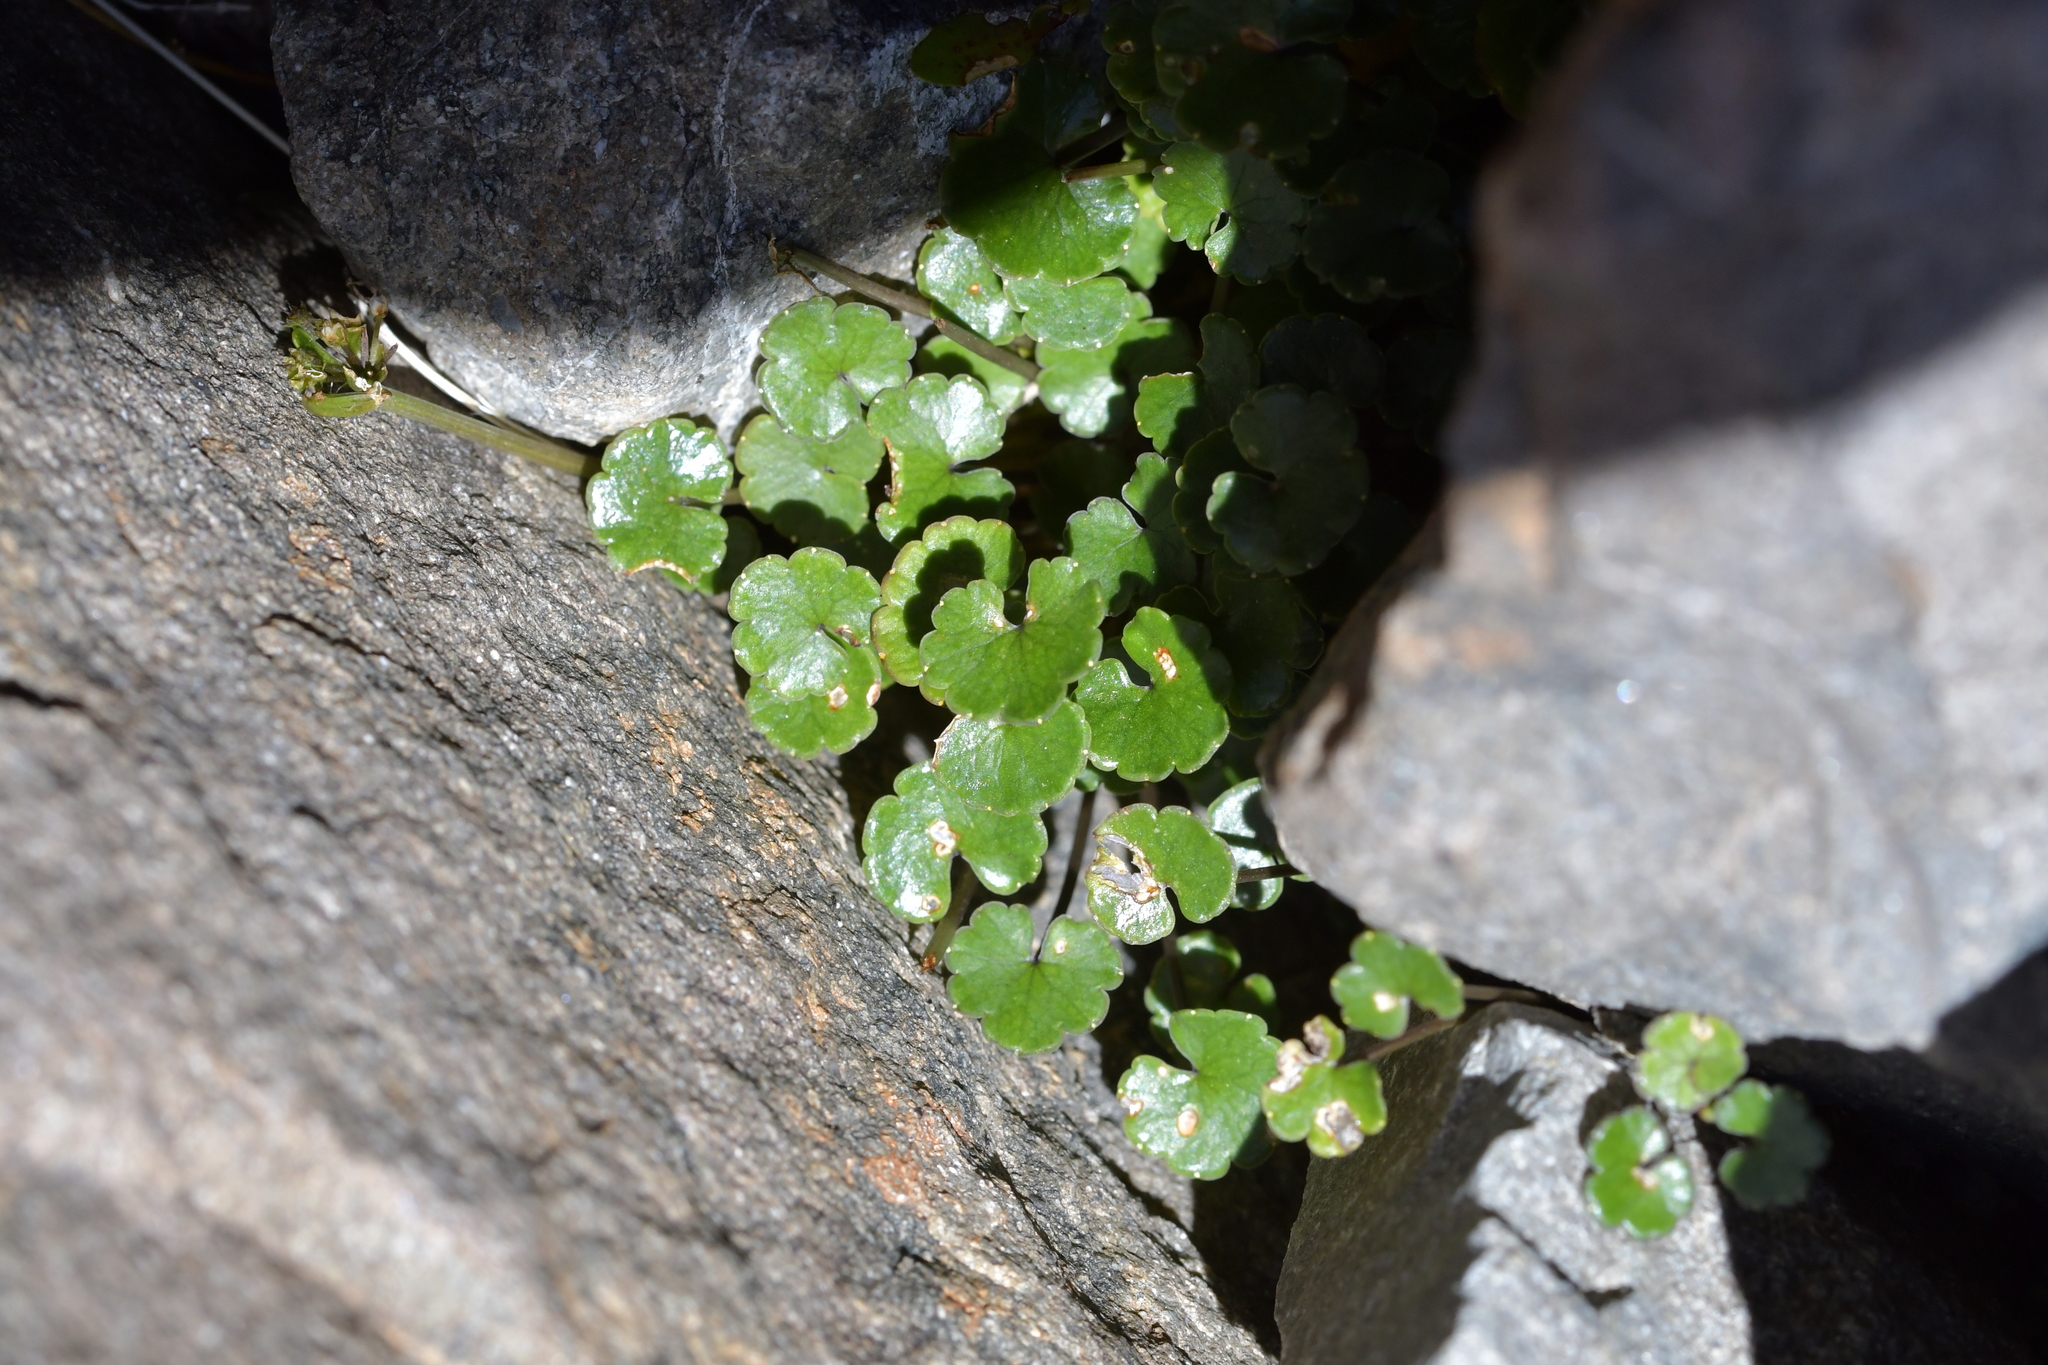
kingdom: Plantae
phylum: Tracheophyta
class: Magnoliopsida
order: Apiales
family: Apiaceae
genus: Azorella
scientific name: Azorella haastii
